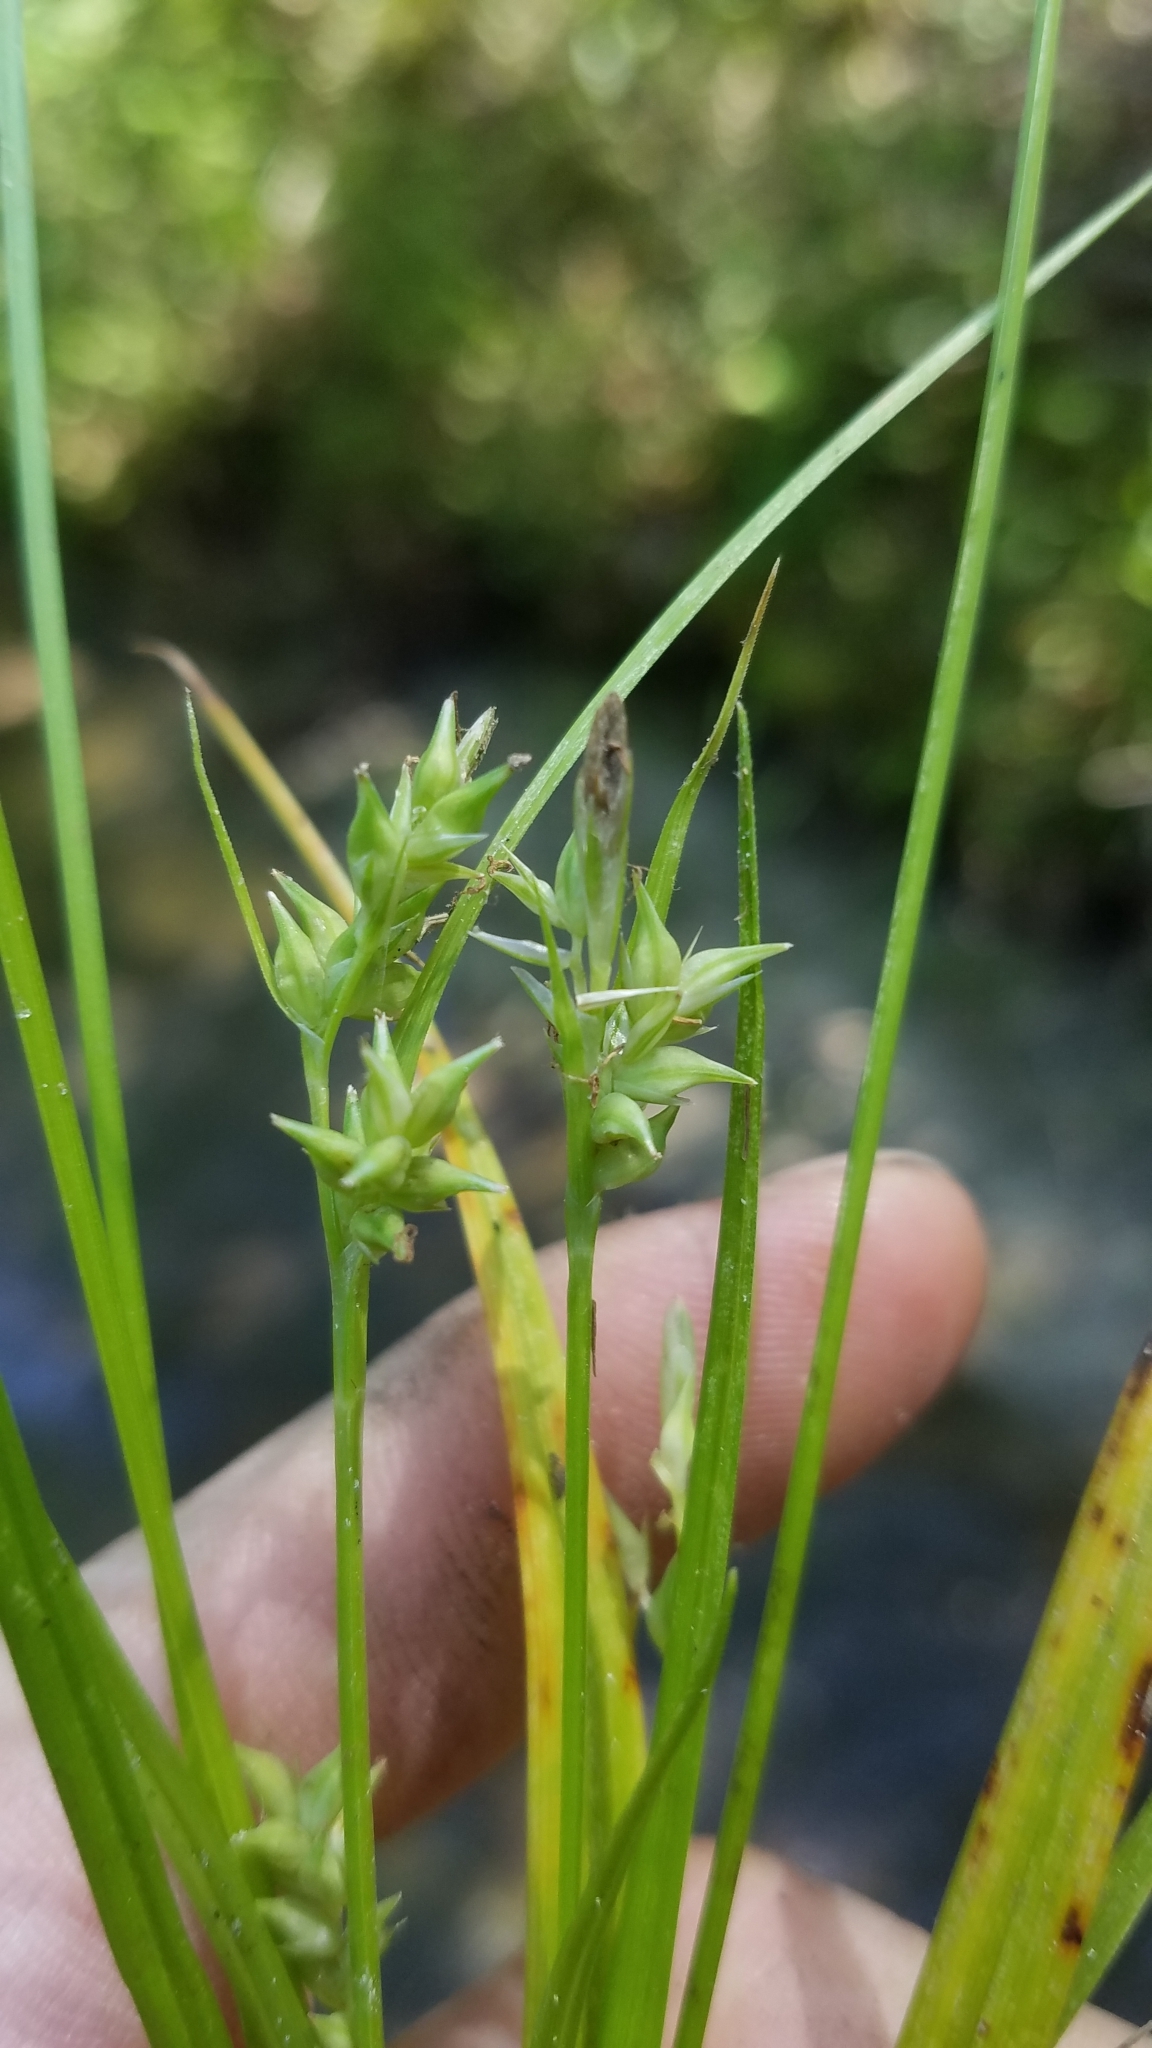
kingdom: Plantae
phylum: Tracheophyta
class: Liliopsida
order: Poales
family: Cyperaceae
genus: Carex
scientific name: Carex styloflexa
